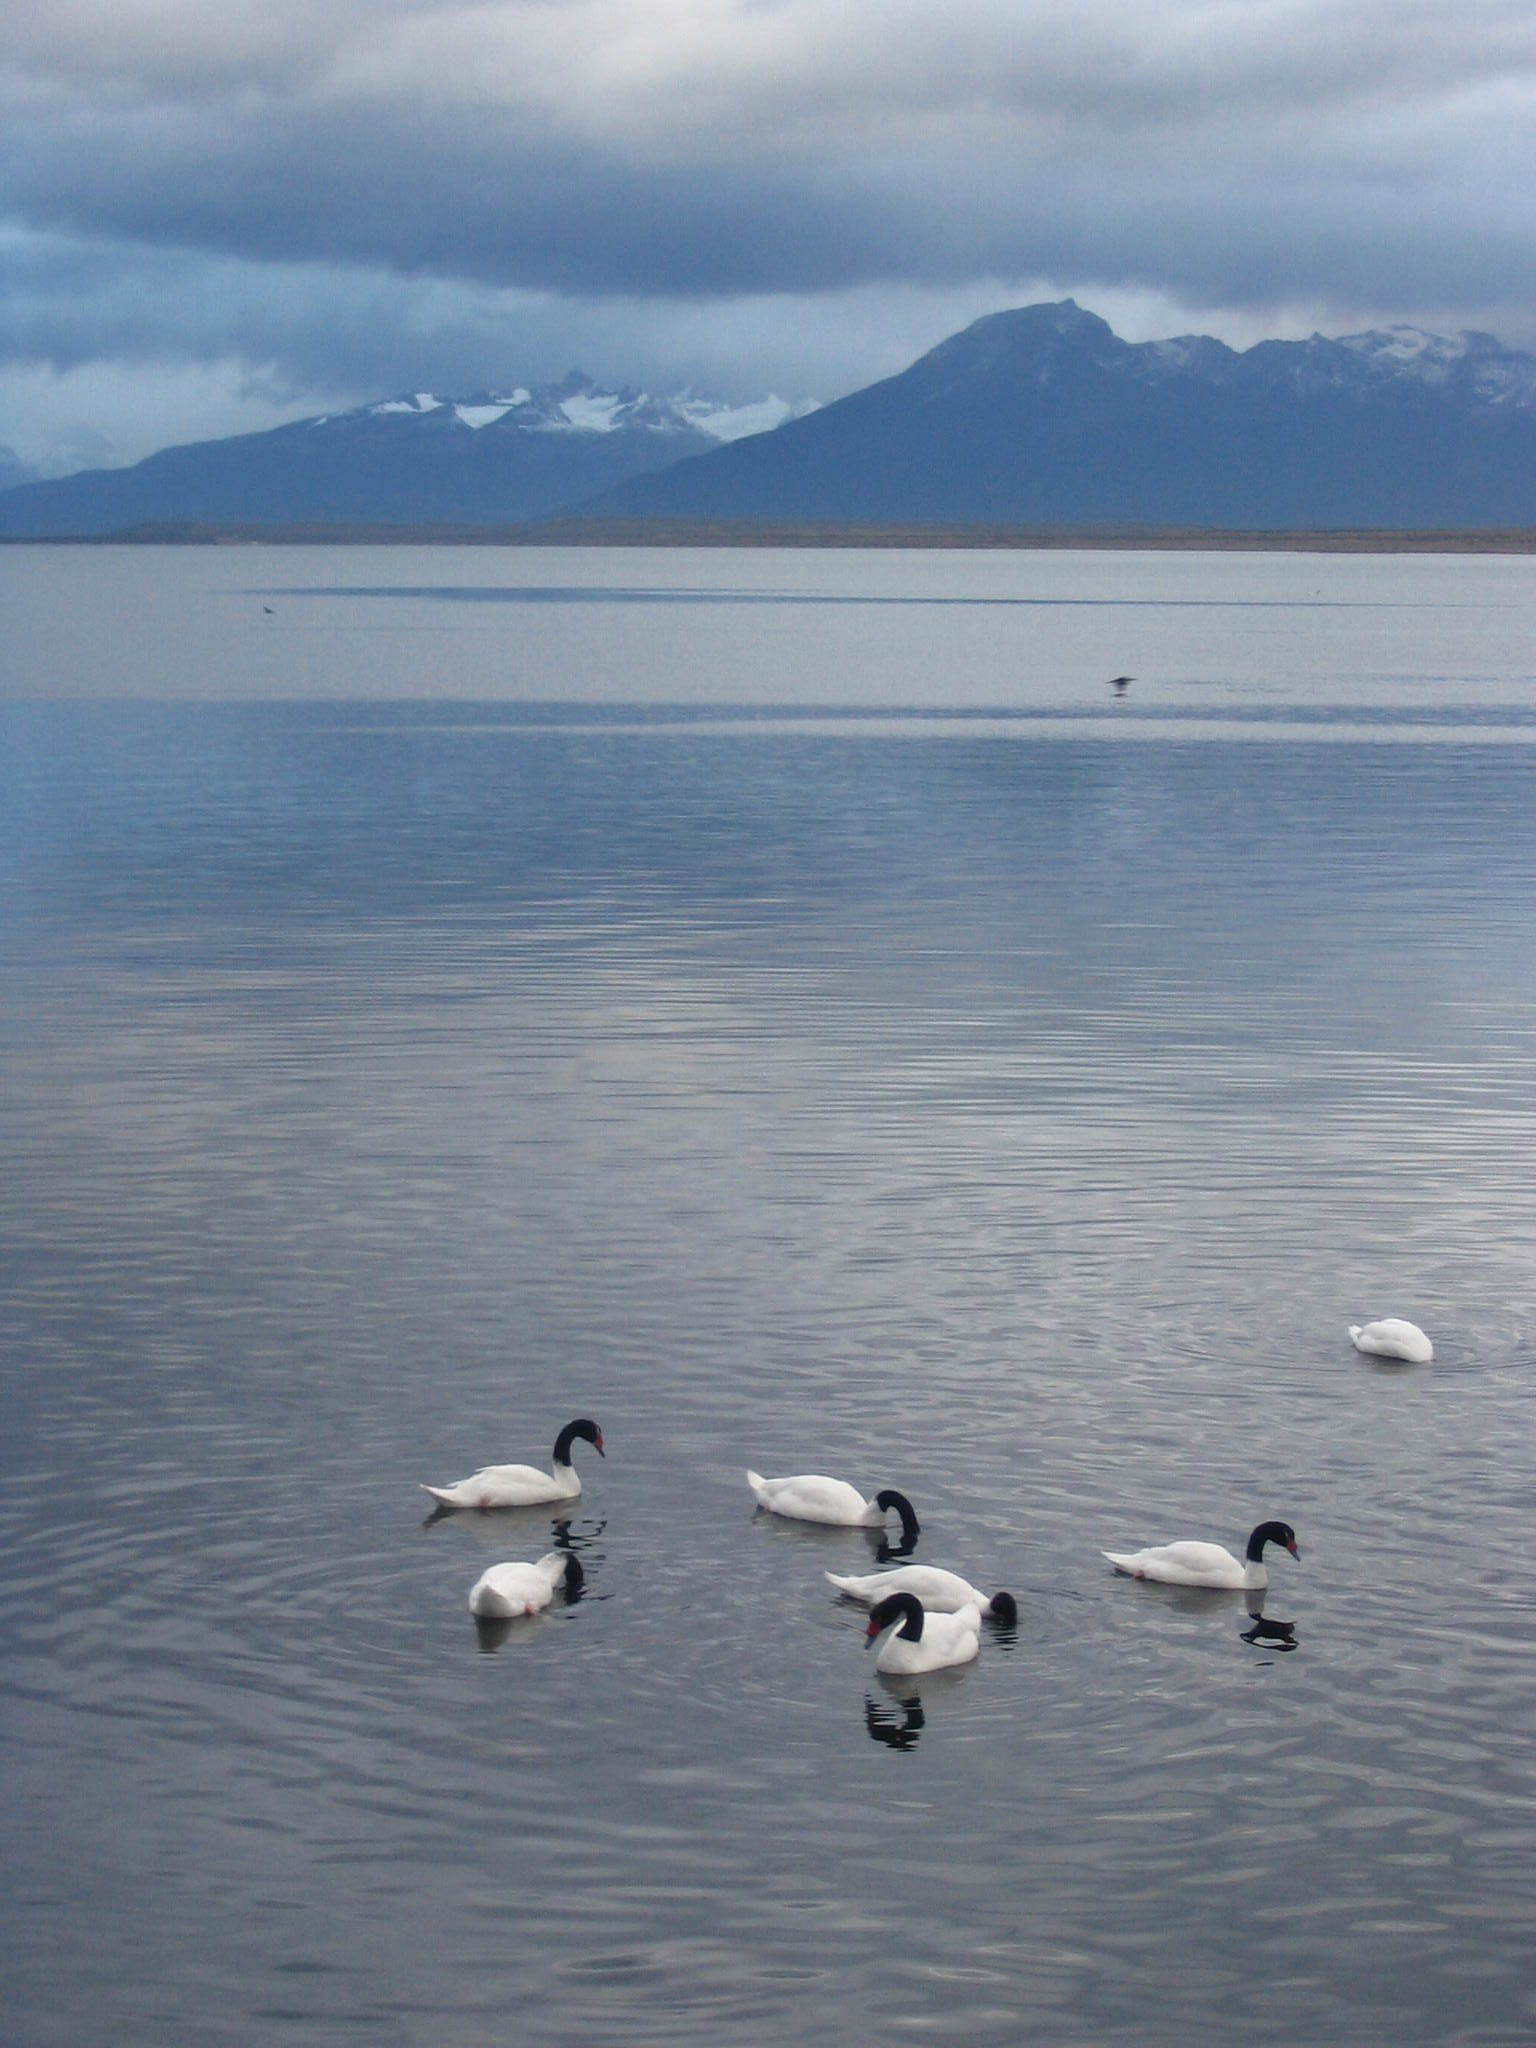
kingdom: Animalia
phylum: Chordata
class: Aves
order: Anseriformes
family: Anatidae
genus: Cygnus
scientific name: Cygnus melancoryphus
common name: Black-necked swan
